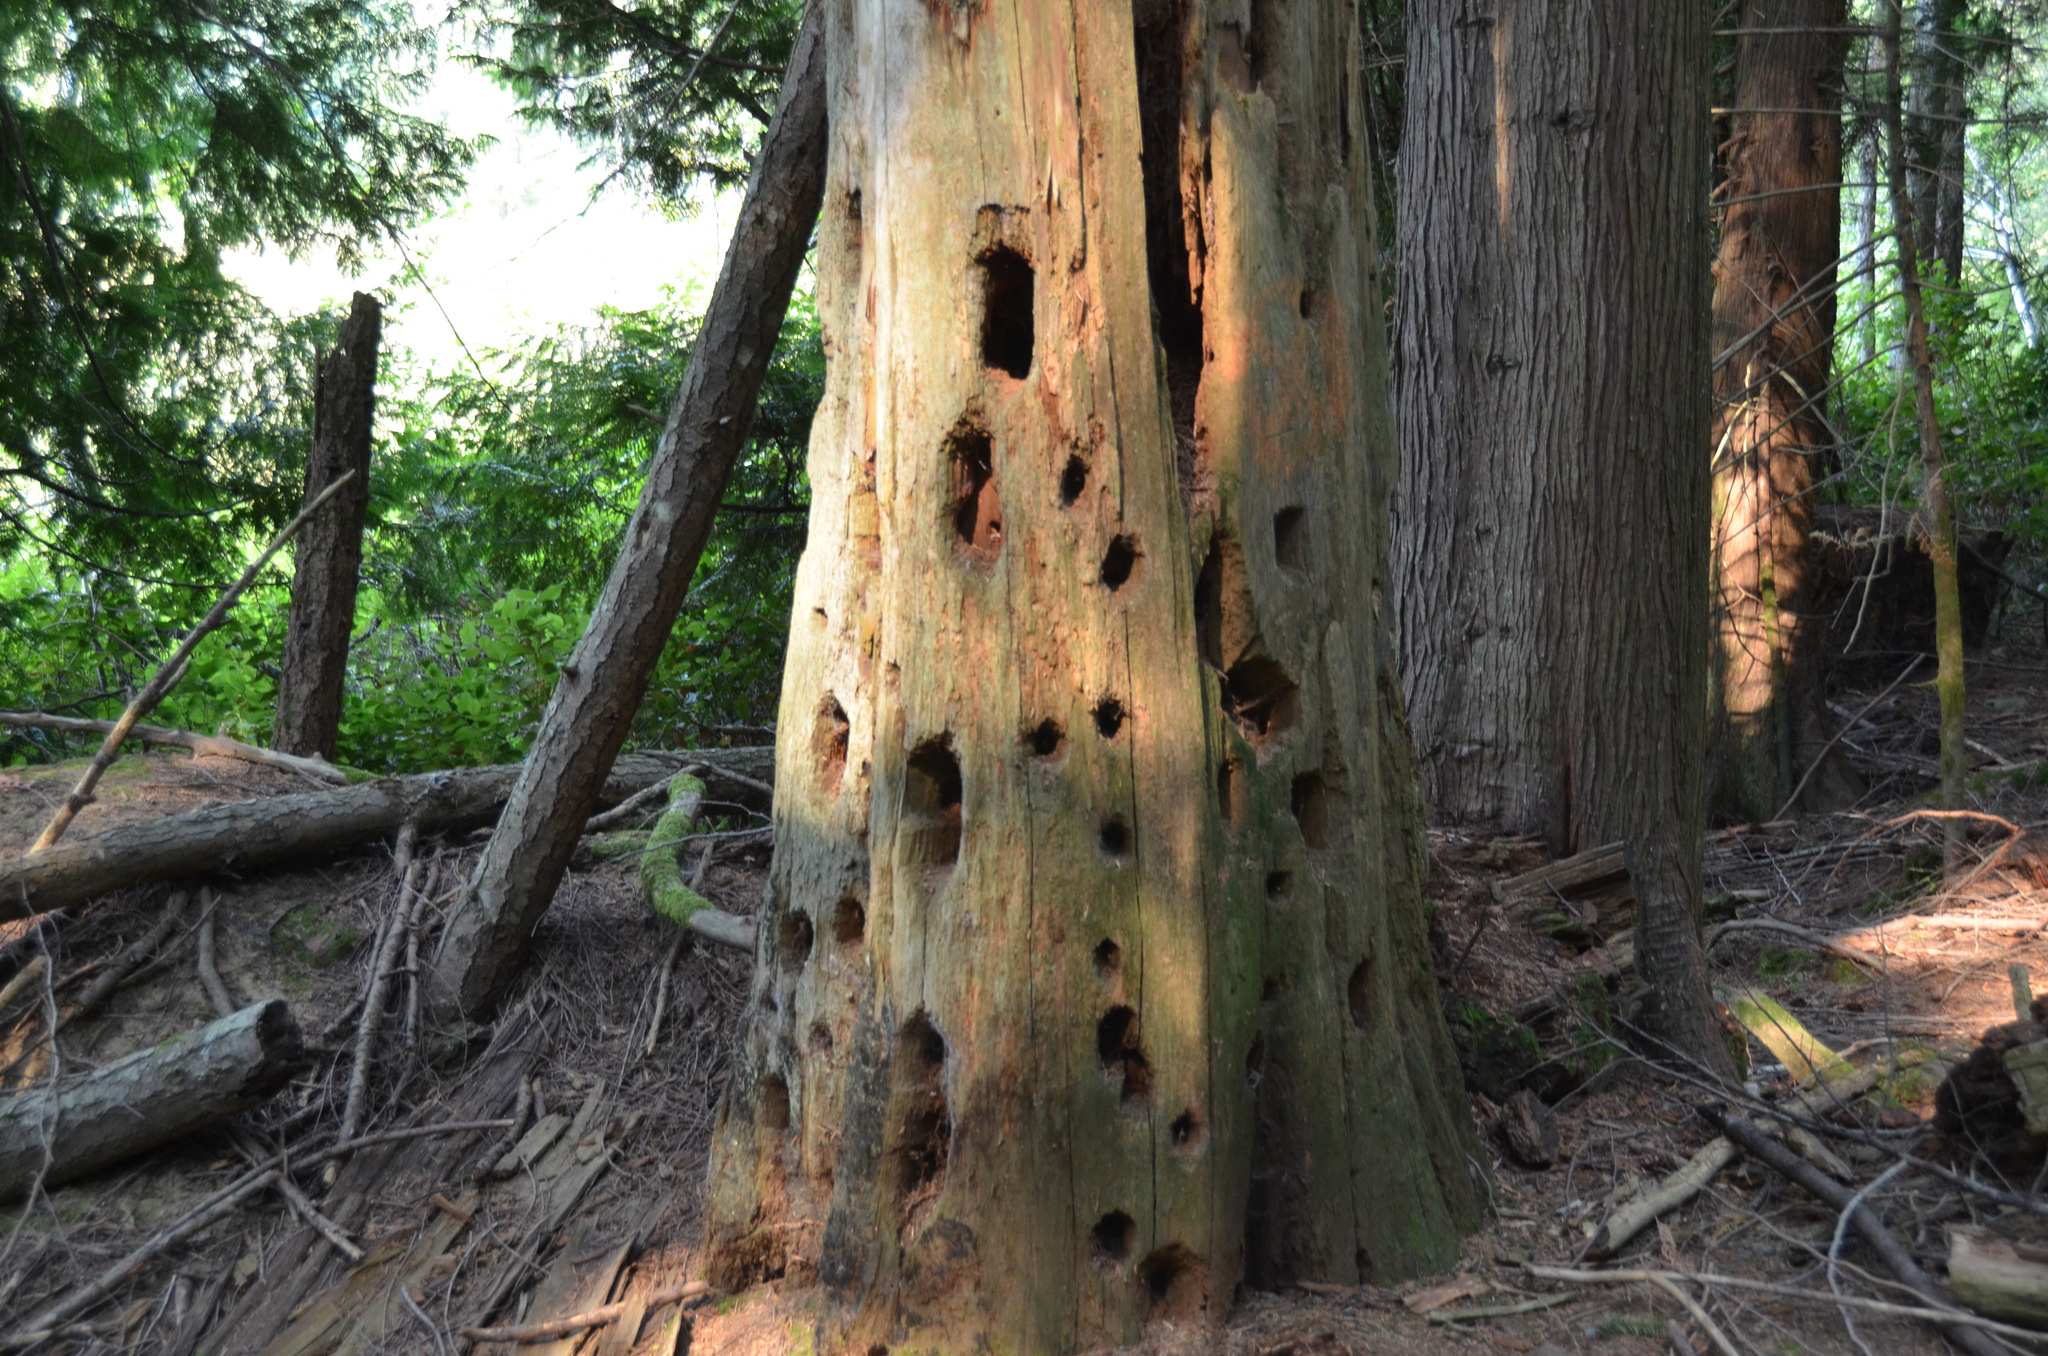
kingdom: Animalia
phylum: Chordata
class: Aves
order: Piciformes
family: Picidae
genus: Dryocopus
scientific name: Dryocopus pileatus
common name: Pileated woodpecker
